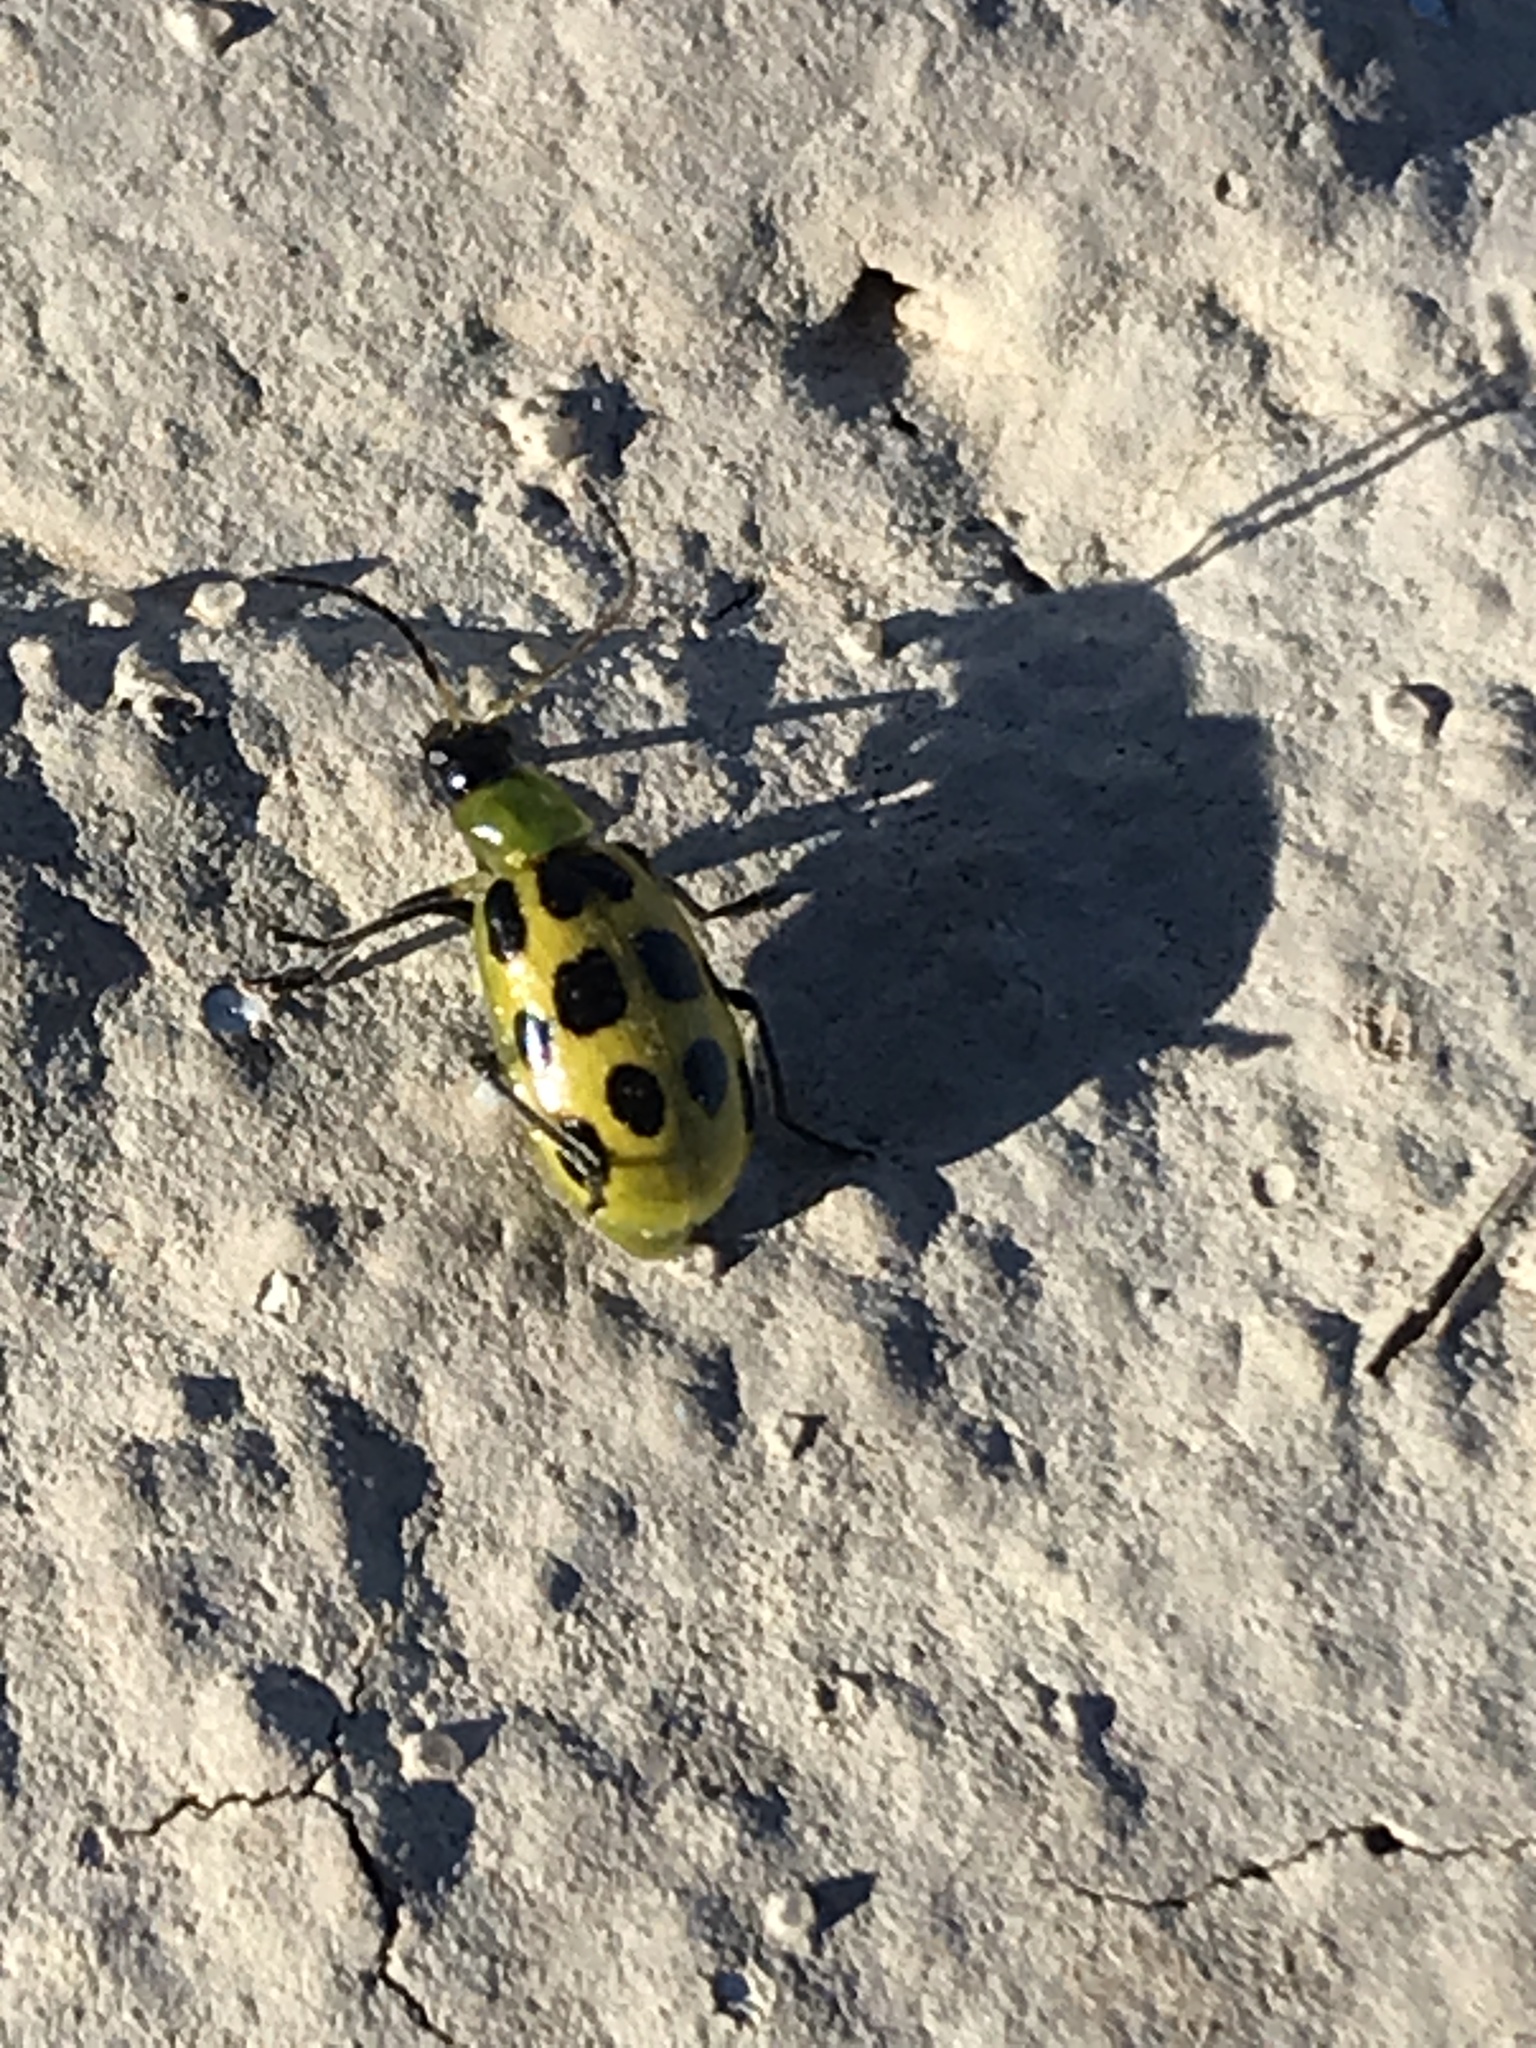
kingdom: Animalia
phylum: Arthropoda
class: Insecta
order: Coleoptera
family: Chrysomelidae
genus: Diabrotica
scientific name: Diabrotica undecimpunctata
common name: Spotted cucumber beetle
